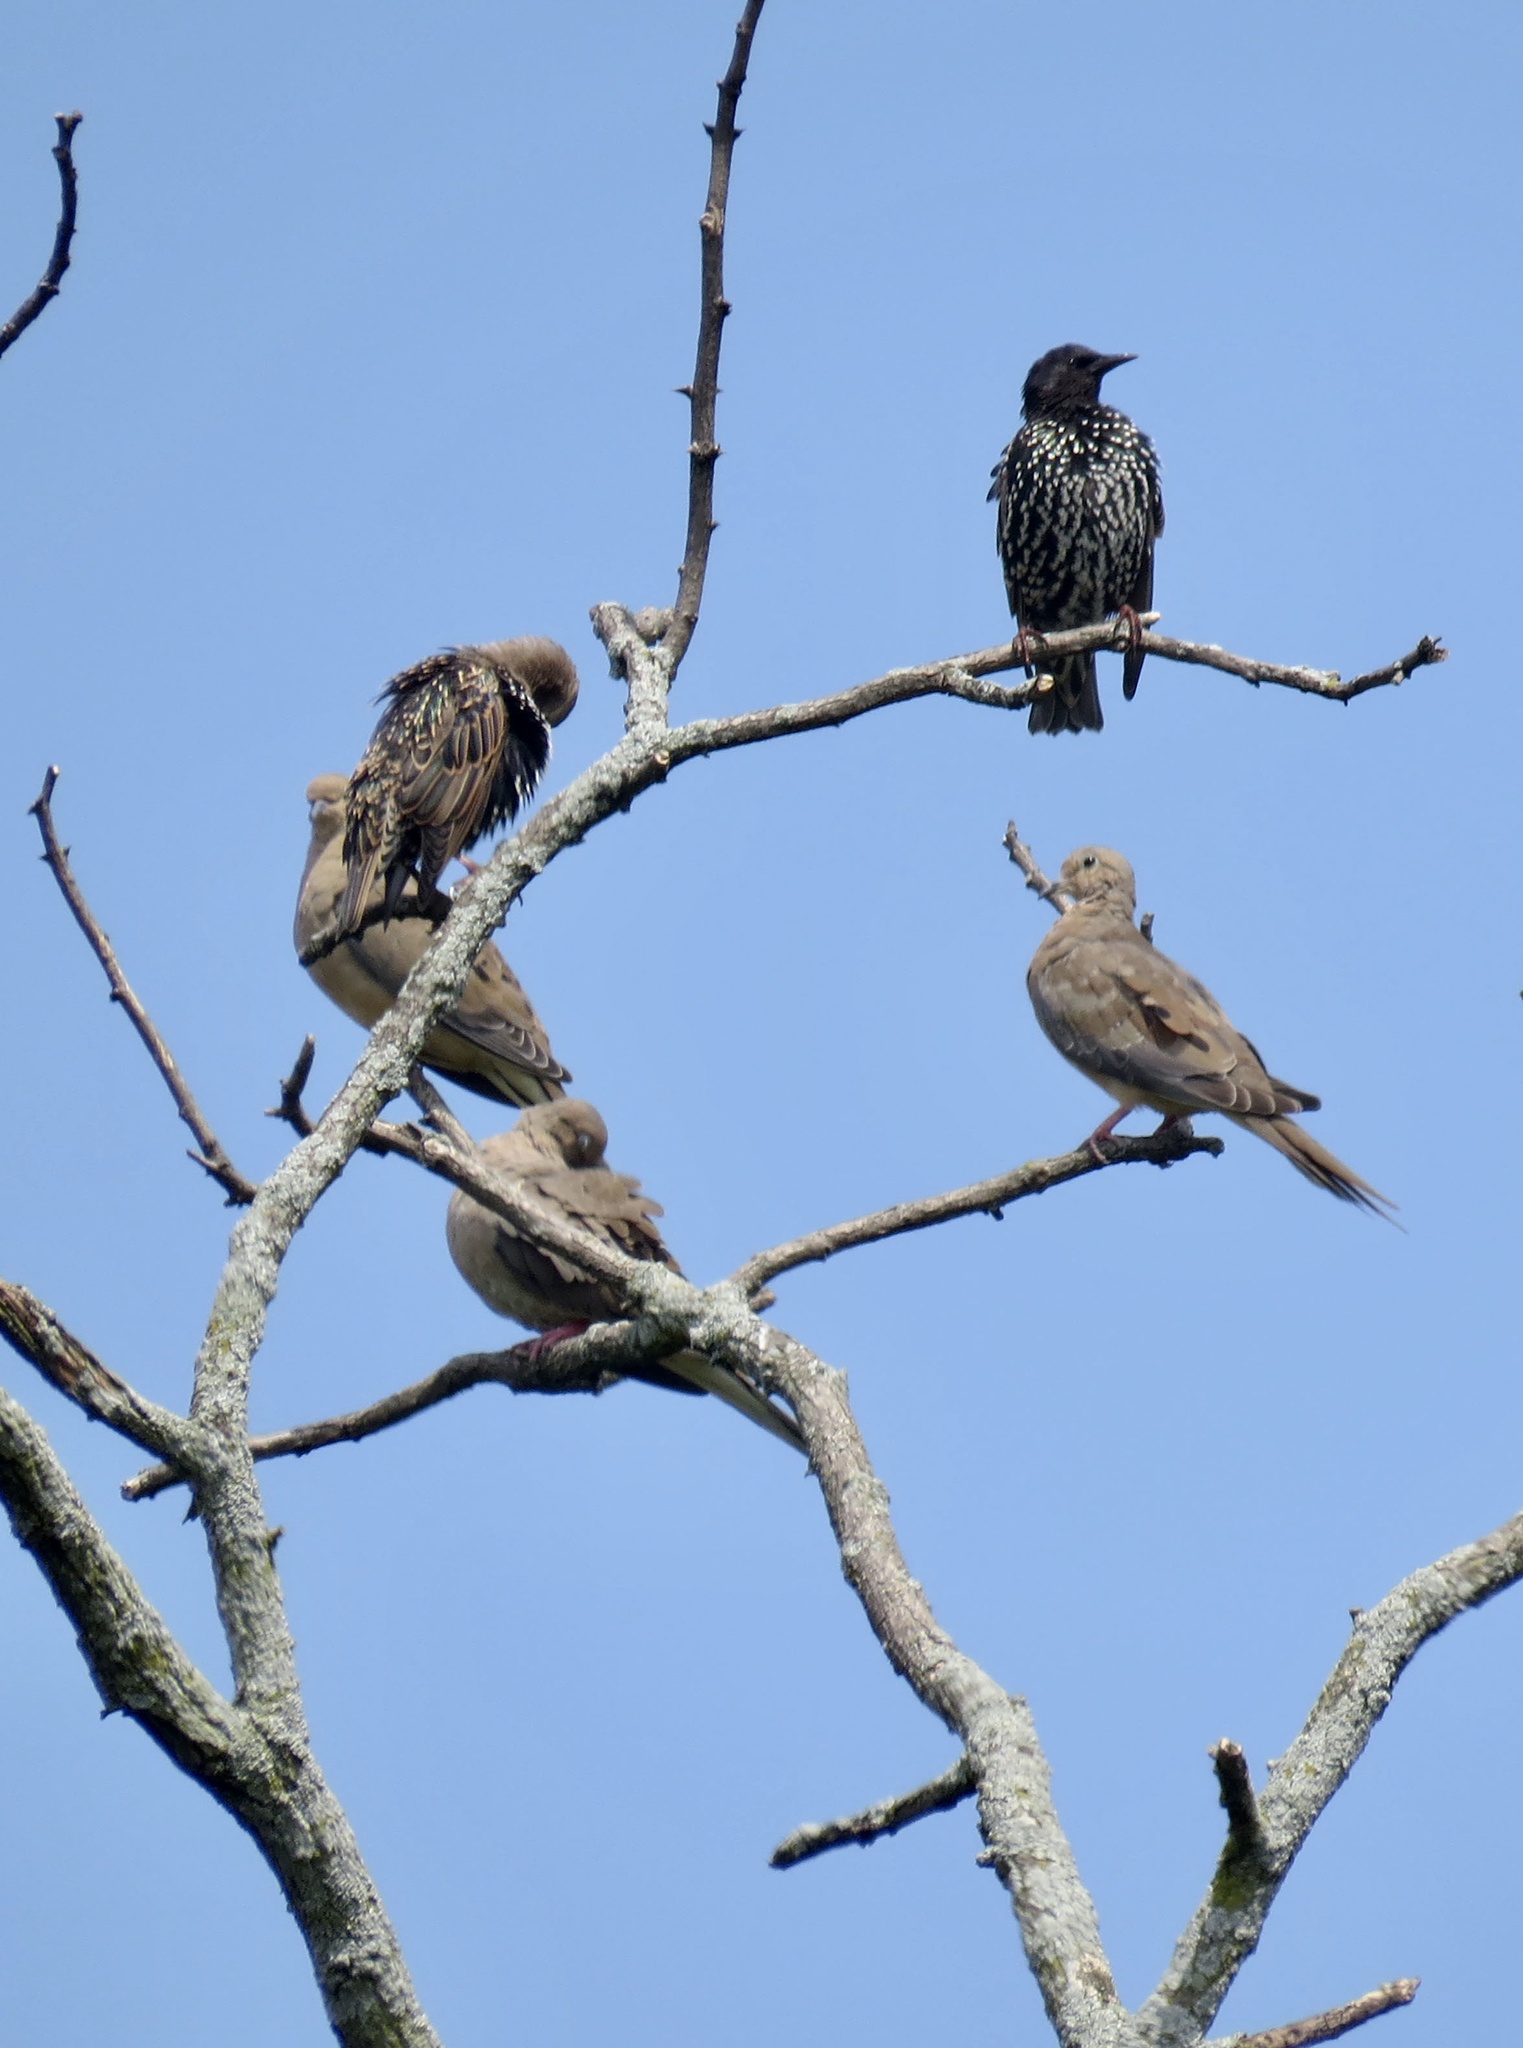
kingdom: Animalia
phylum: Chordata
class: Aves
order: Passeriformes
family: Sturnidae
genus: Sturnus
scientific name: Sturnus vulgaris
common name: Common starling
